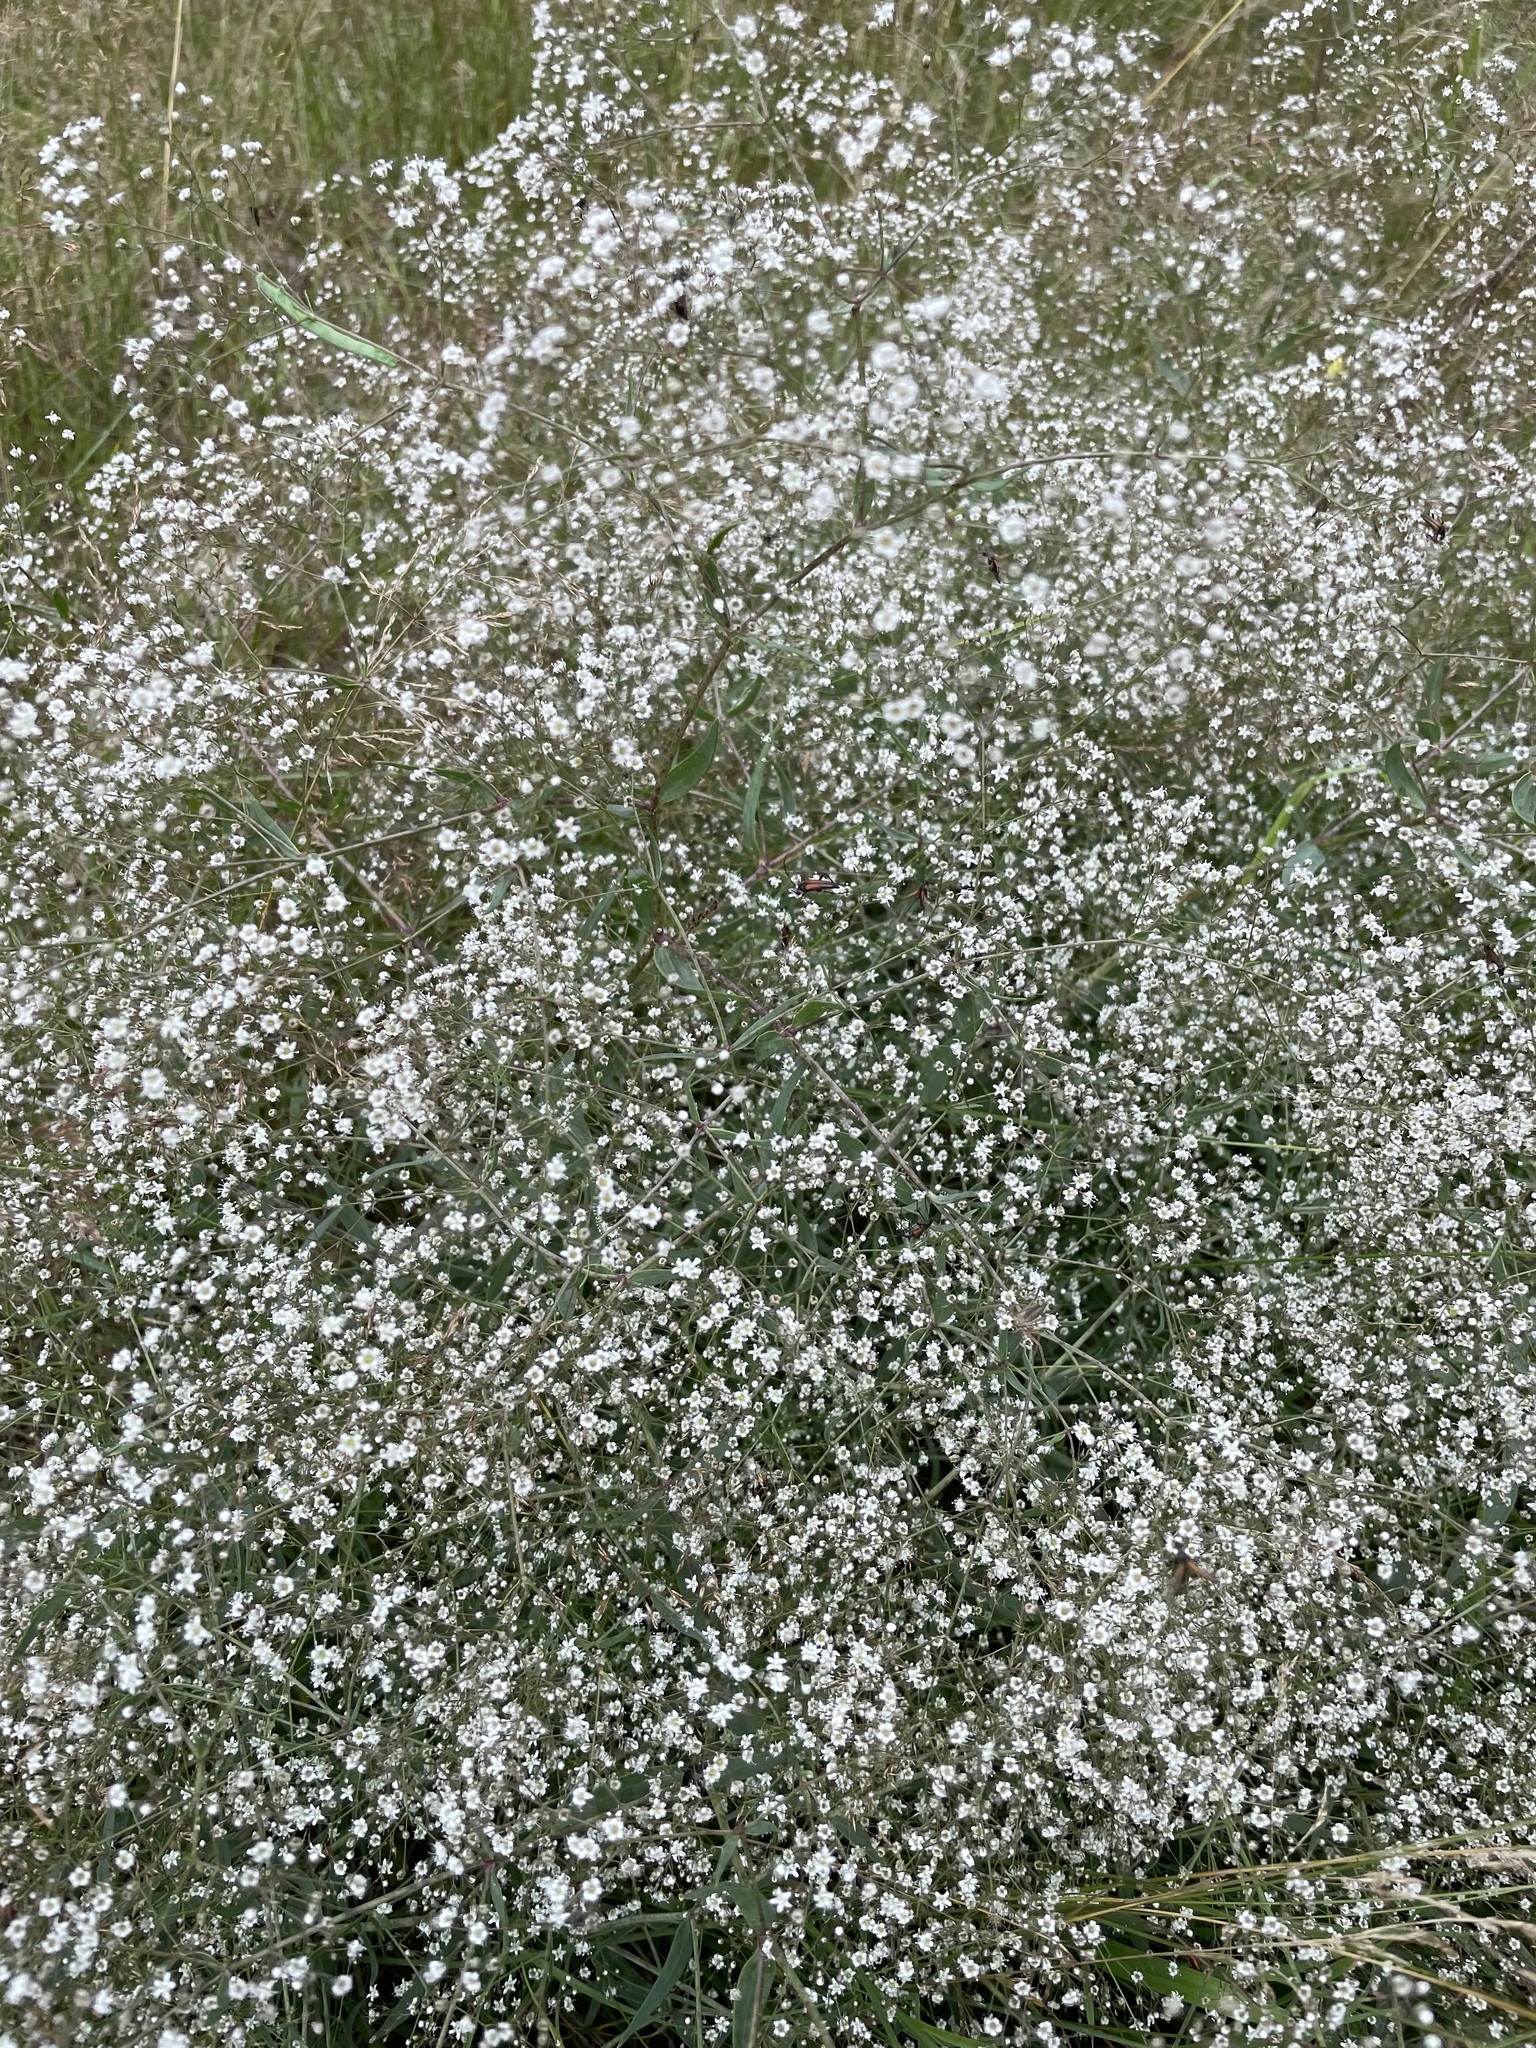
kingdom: Plantae
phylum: Tracheophyta
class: Magnoliopsida
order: Caryophyllales
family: Caryophyllaceae
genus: Gypsophila
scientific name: Gypsophila paniculata
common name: Baby's-breath
